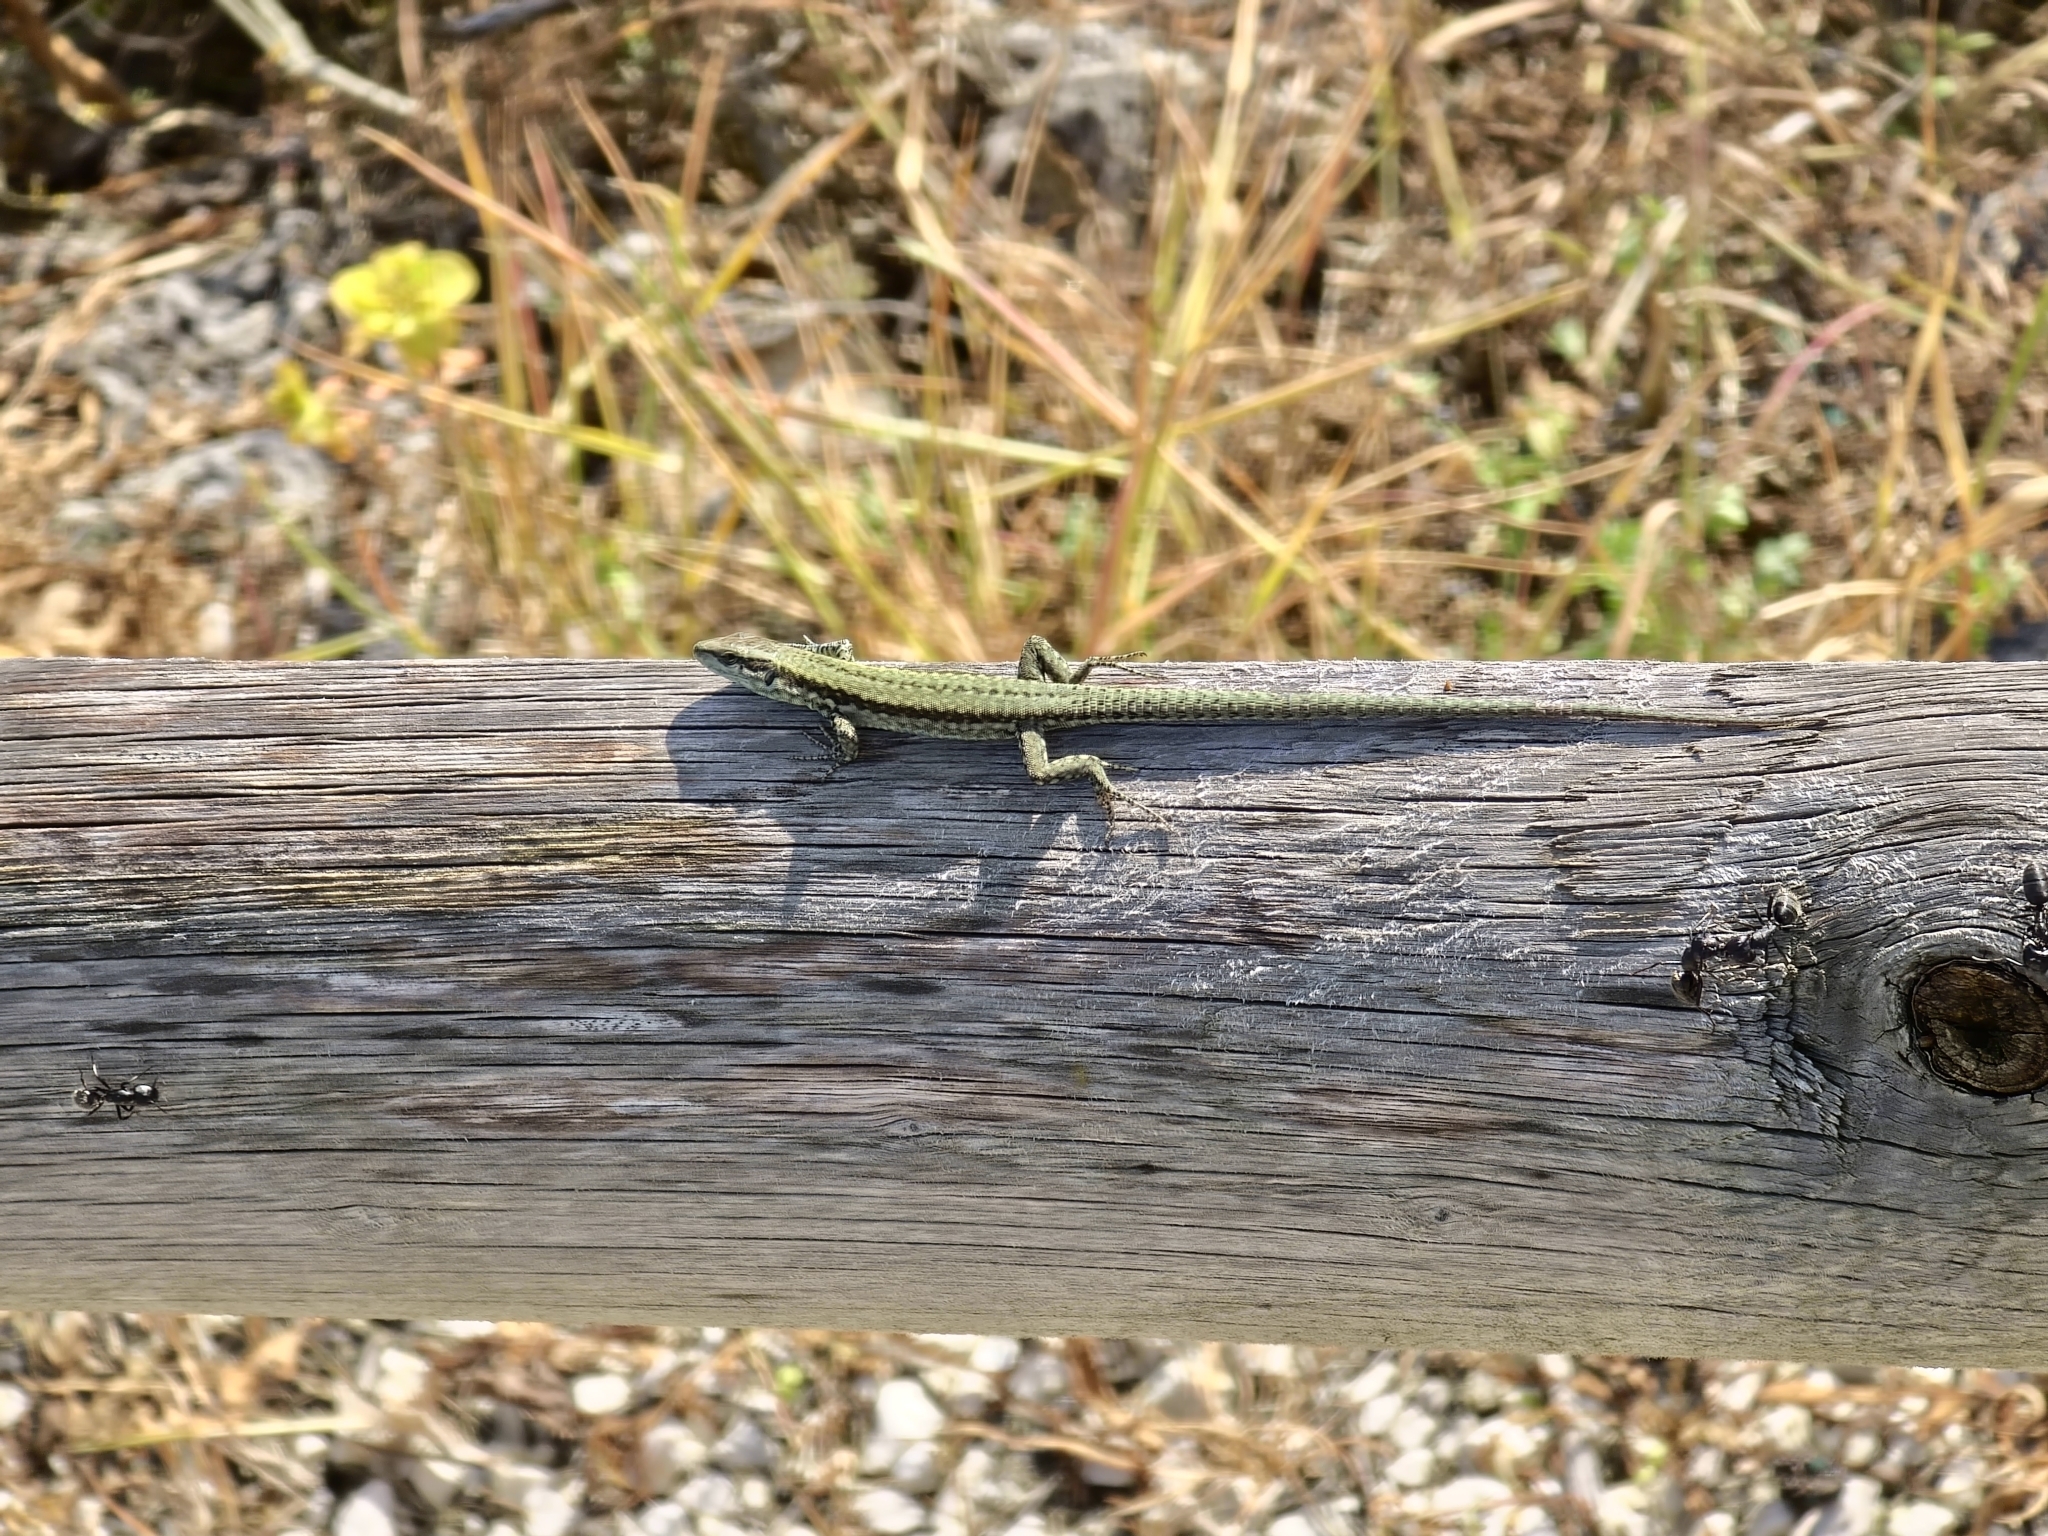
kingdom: Animalia
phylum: Chordata
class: Squamata
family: Lacertidae
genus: Podarcis
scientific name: Podarcis muralis
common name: Common wall lizard
